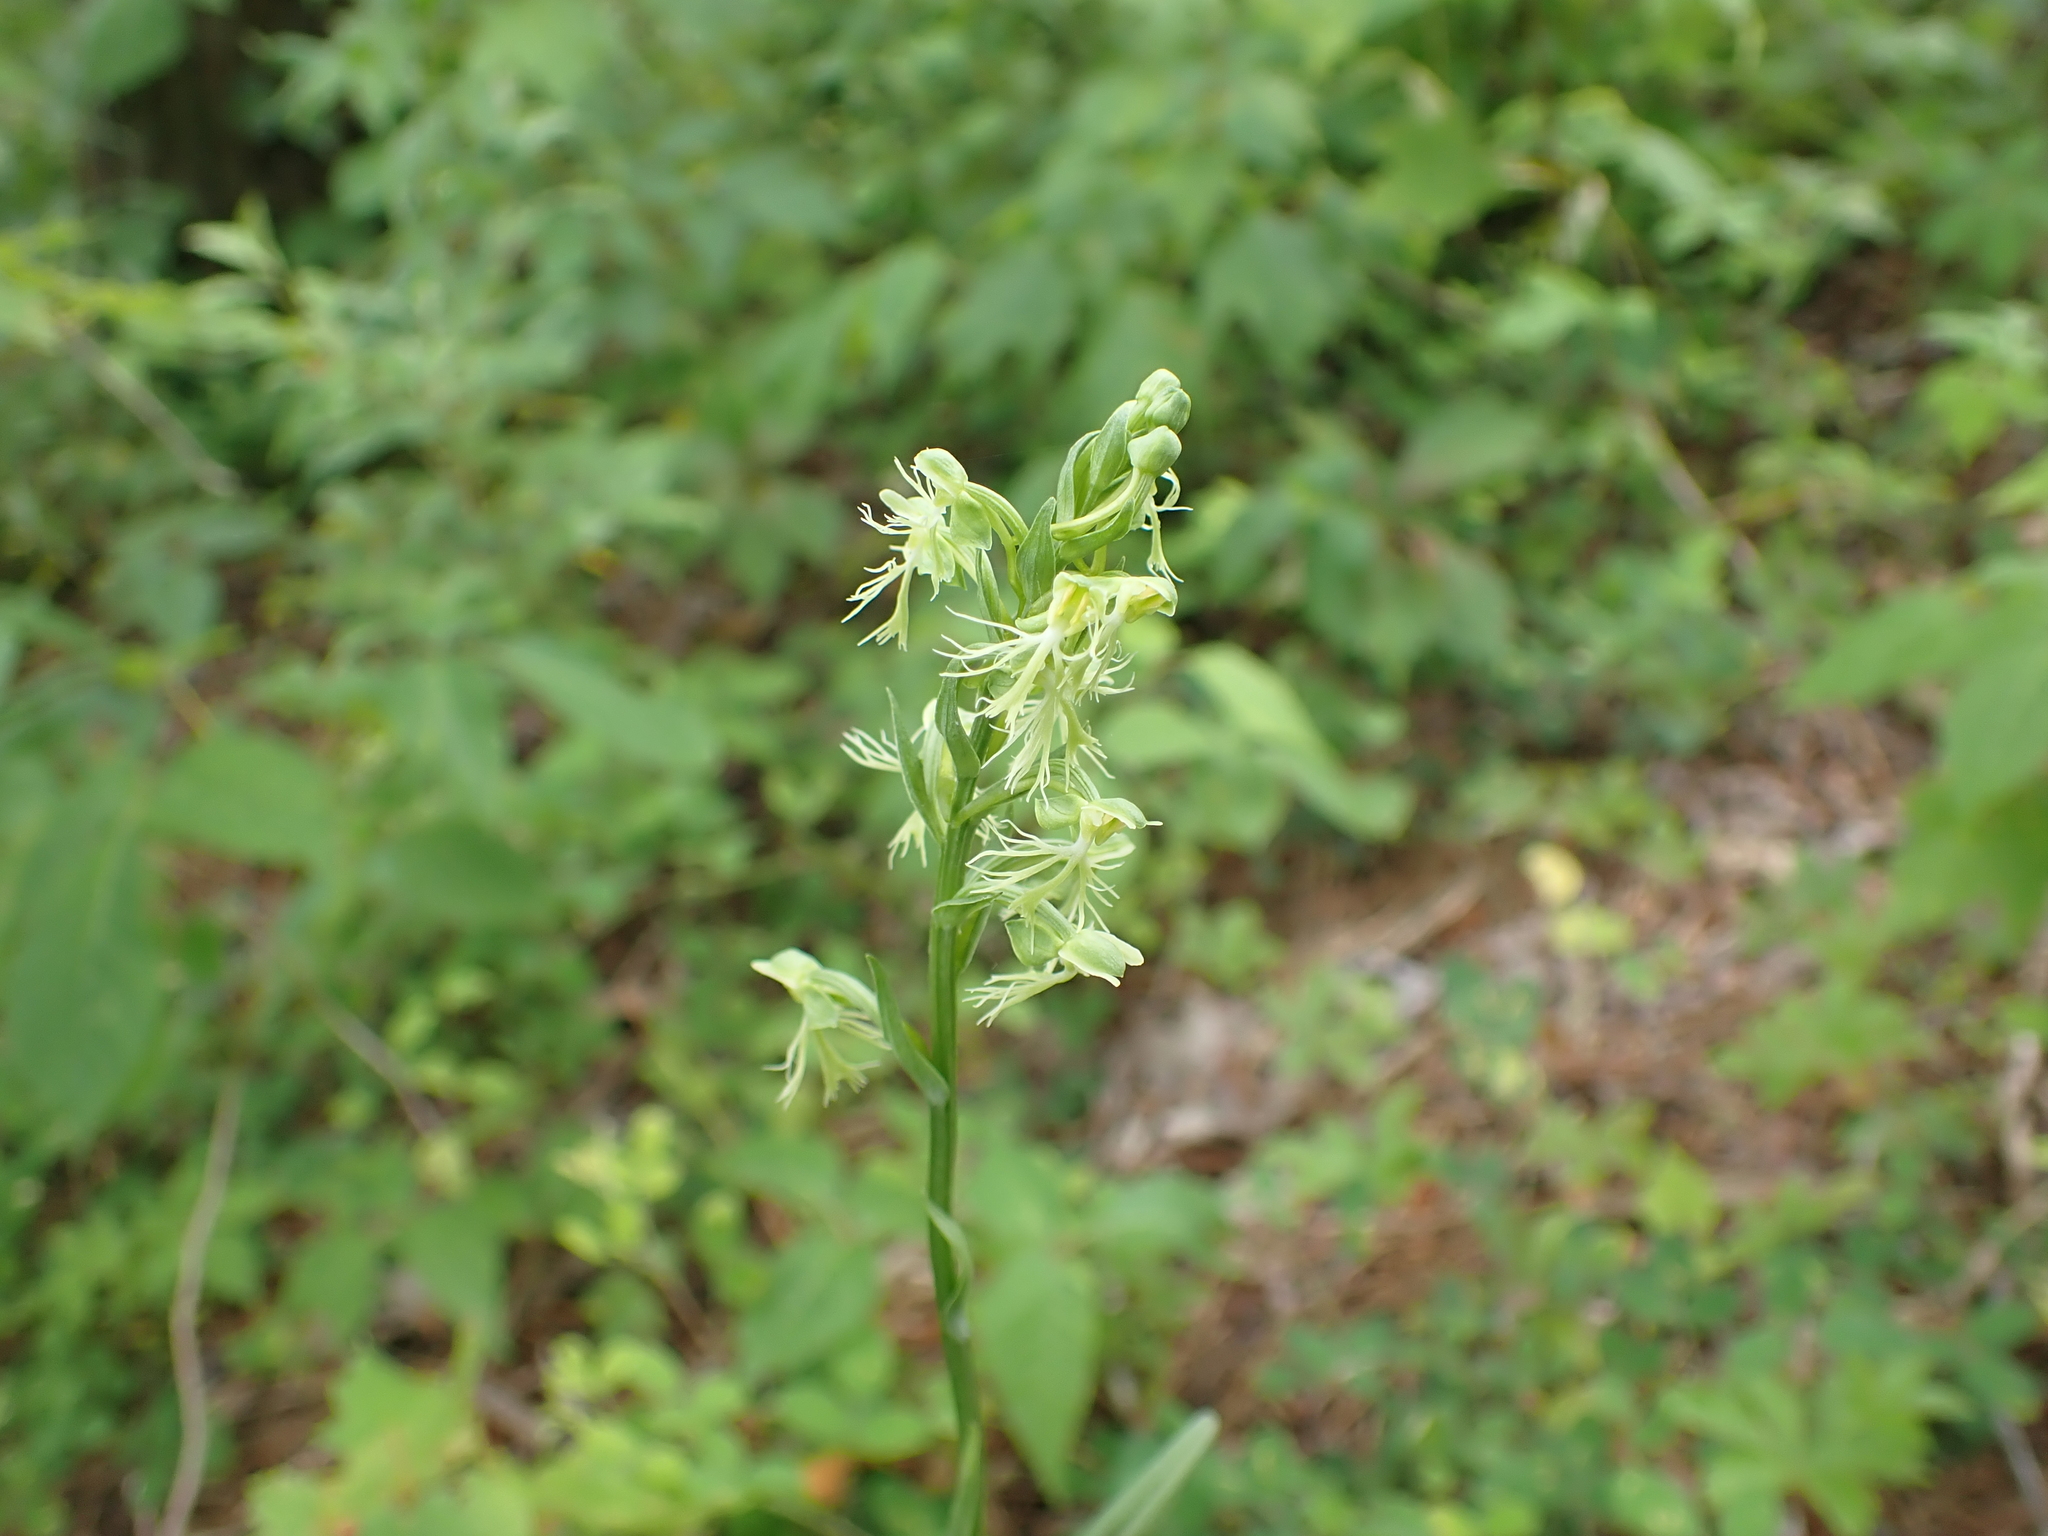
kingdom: Plantae
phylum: Tracheophyta
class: Liliopsida
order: Asparagales
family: Orchidaceae
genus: Platanthera
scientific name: Platanthera lacera
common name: Green fringed orchid
